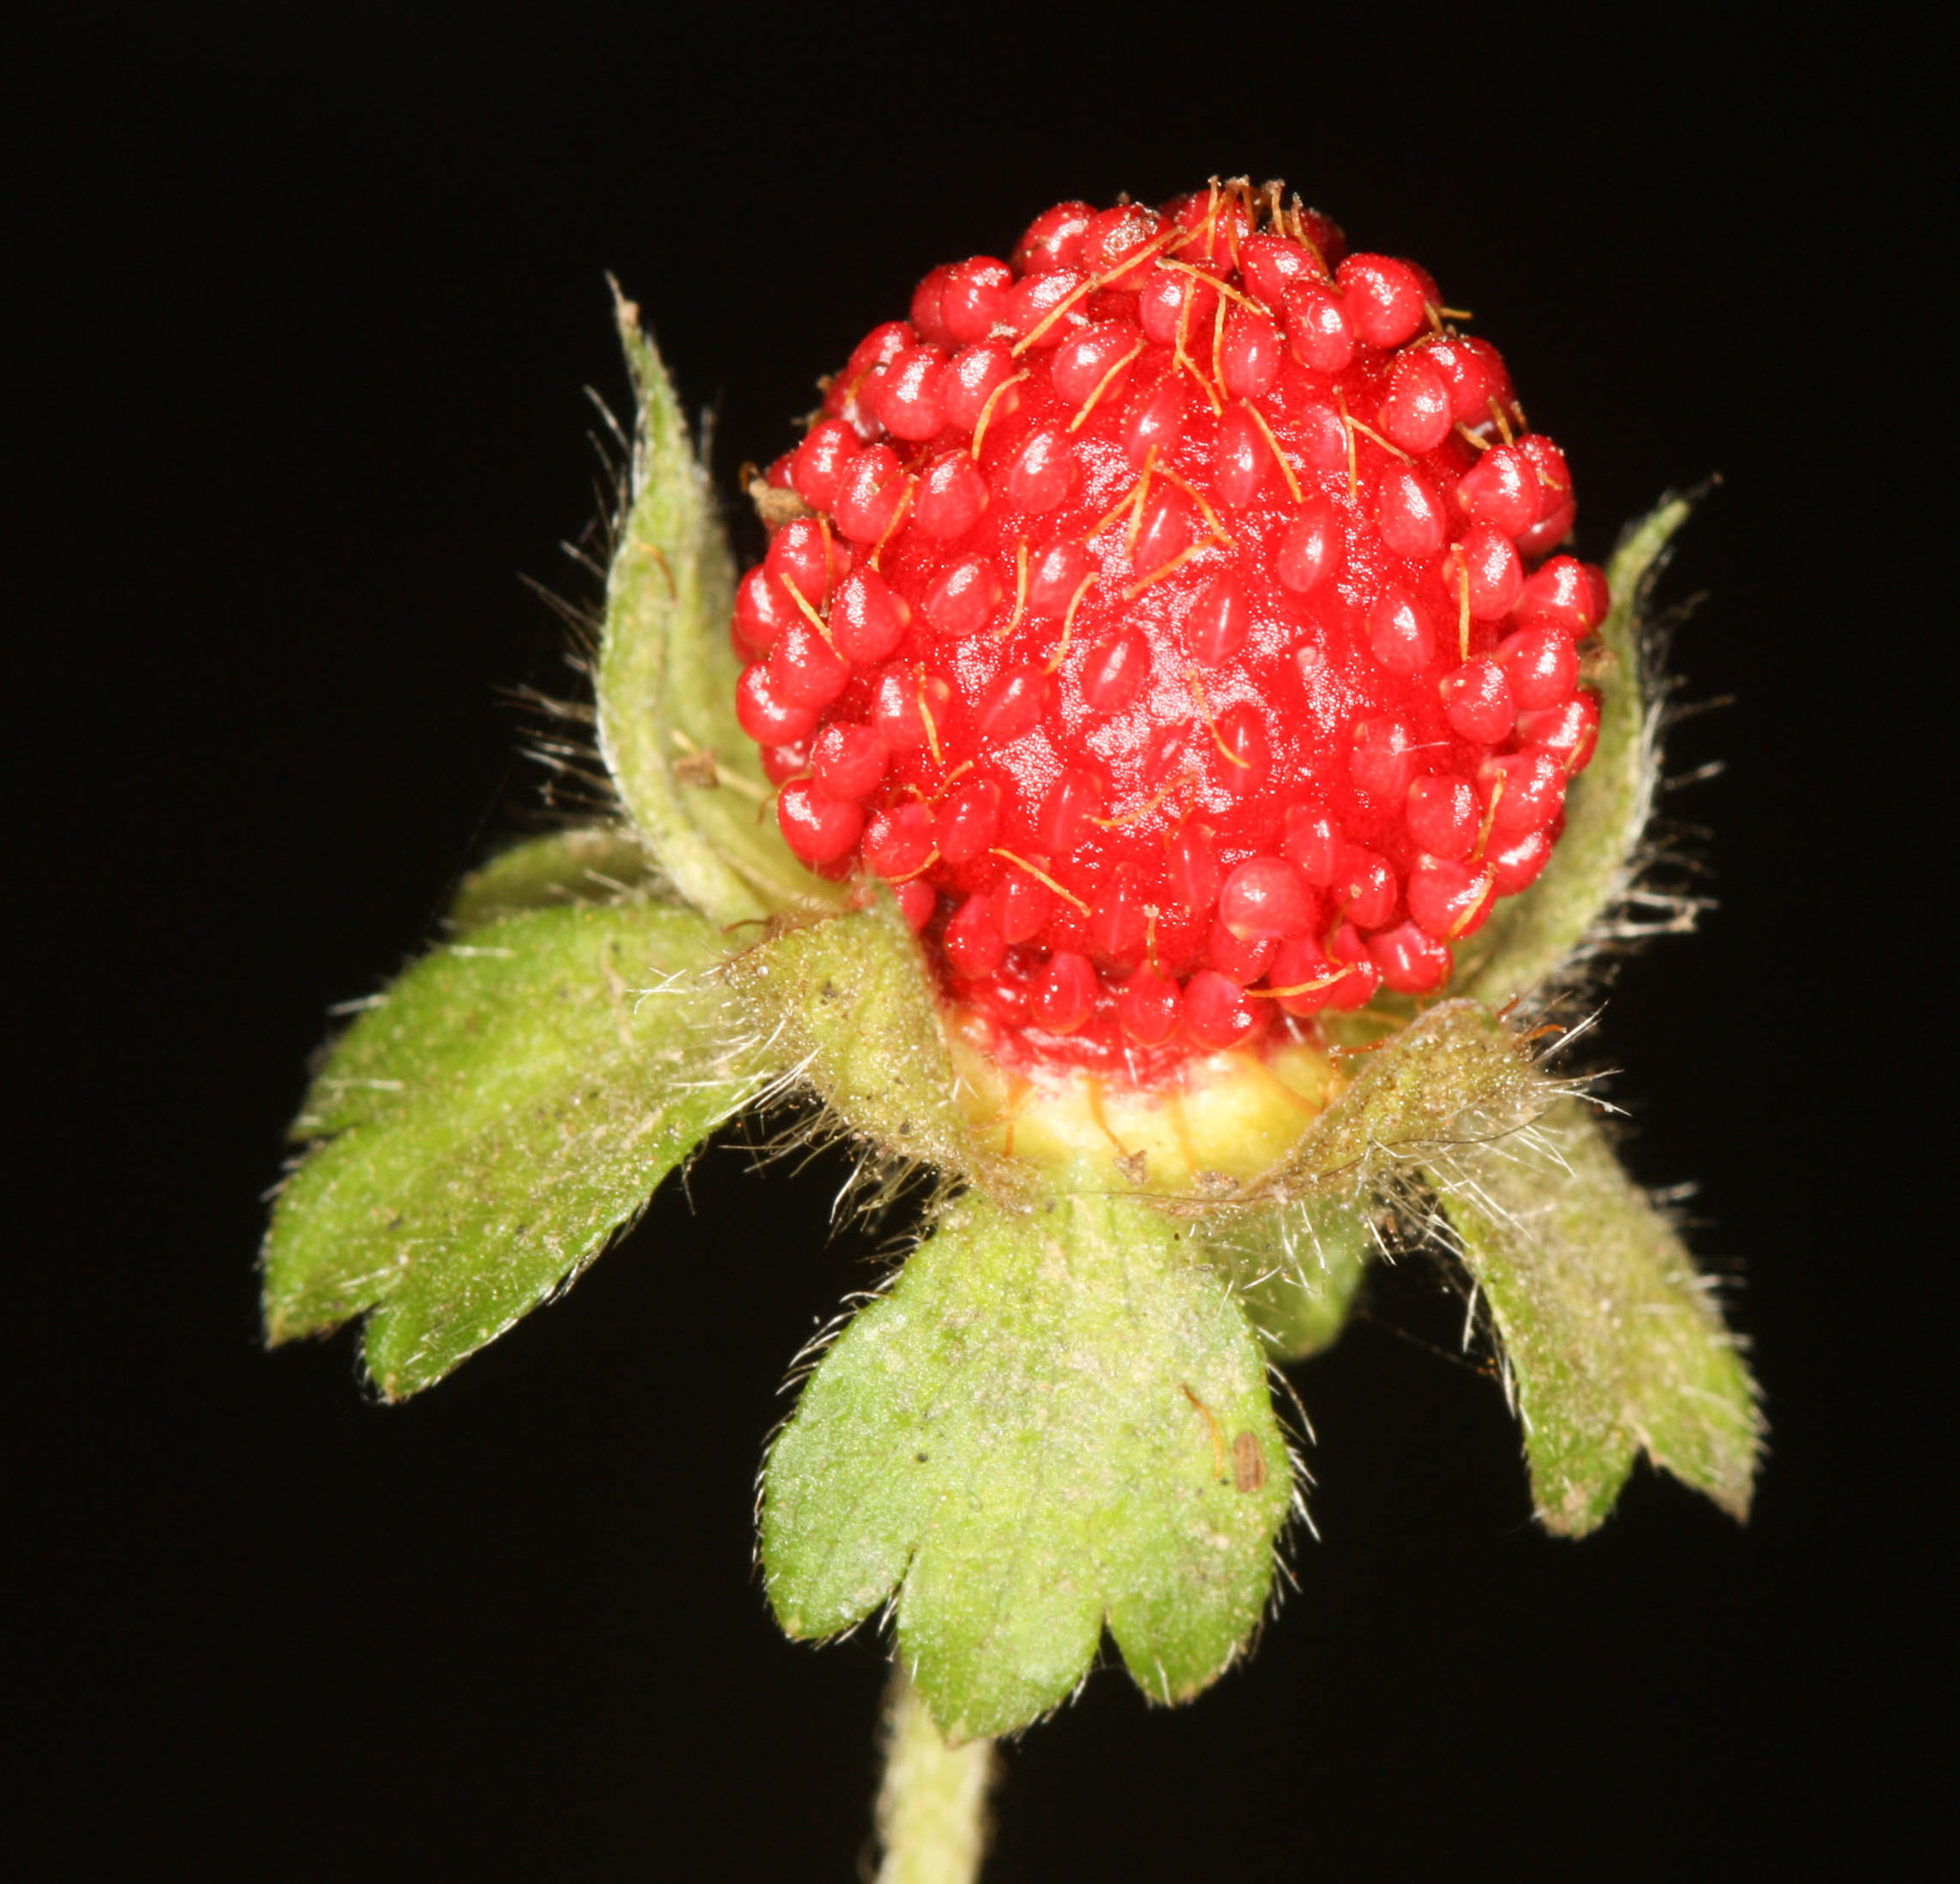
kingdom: Plantae
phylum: Tracheophyta
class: Magnoliopsida
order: Rosales
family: Rosaceae
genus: Potentilla
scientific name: Potentilla indica
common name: Yellow-flowered strawberry
